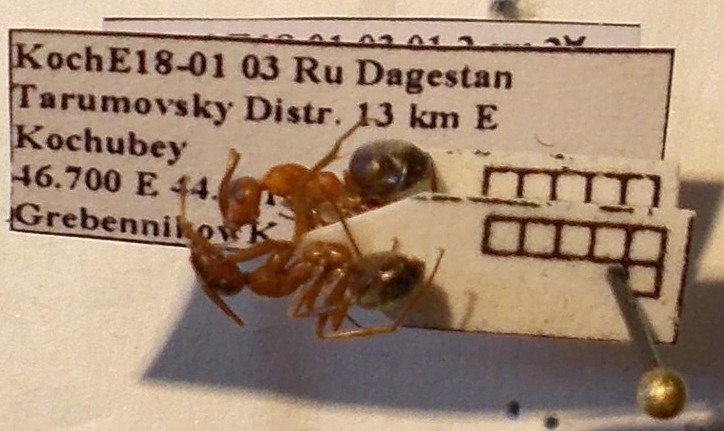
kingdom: Animalia
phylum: Arthropoda
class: Insecta
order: Hymenoptera
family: Formicidae
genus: Formica
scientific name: Formica subpilosa
